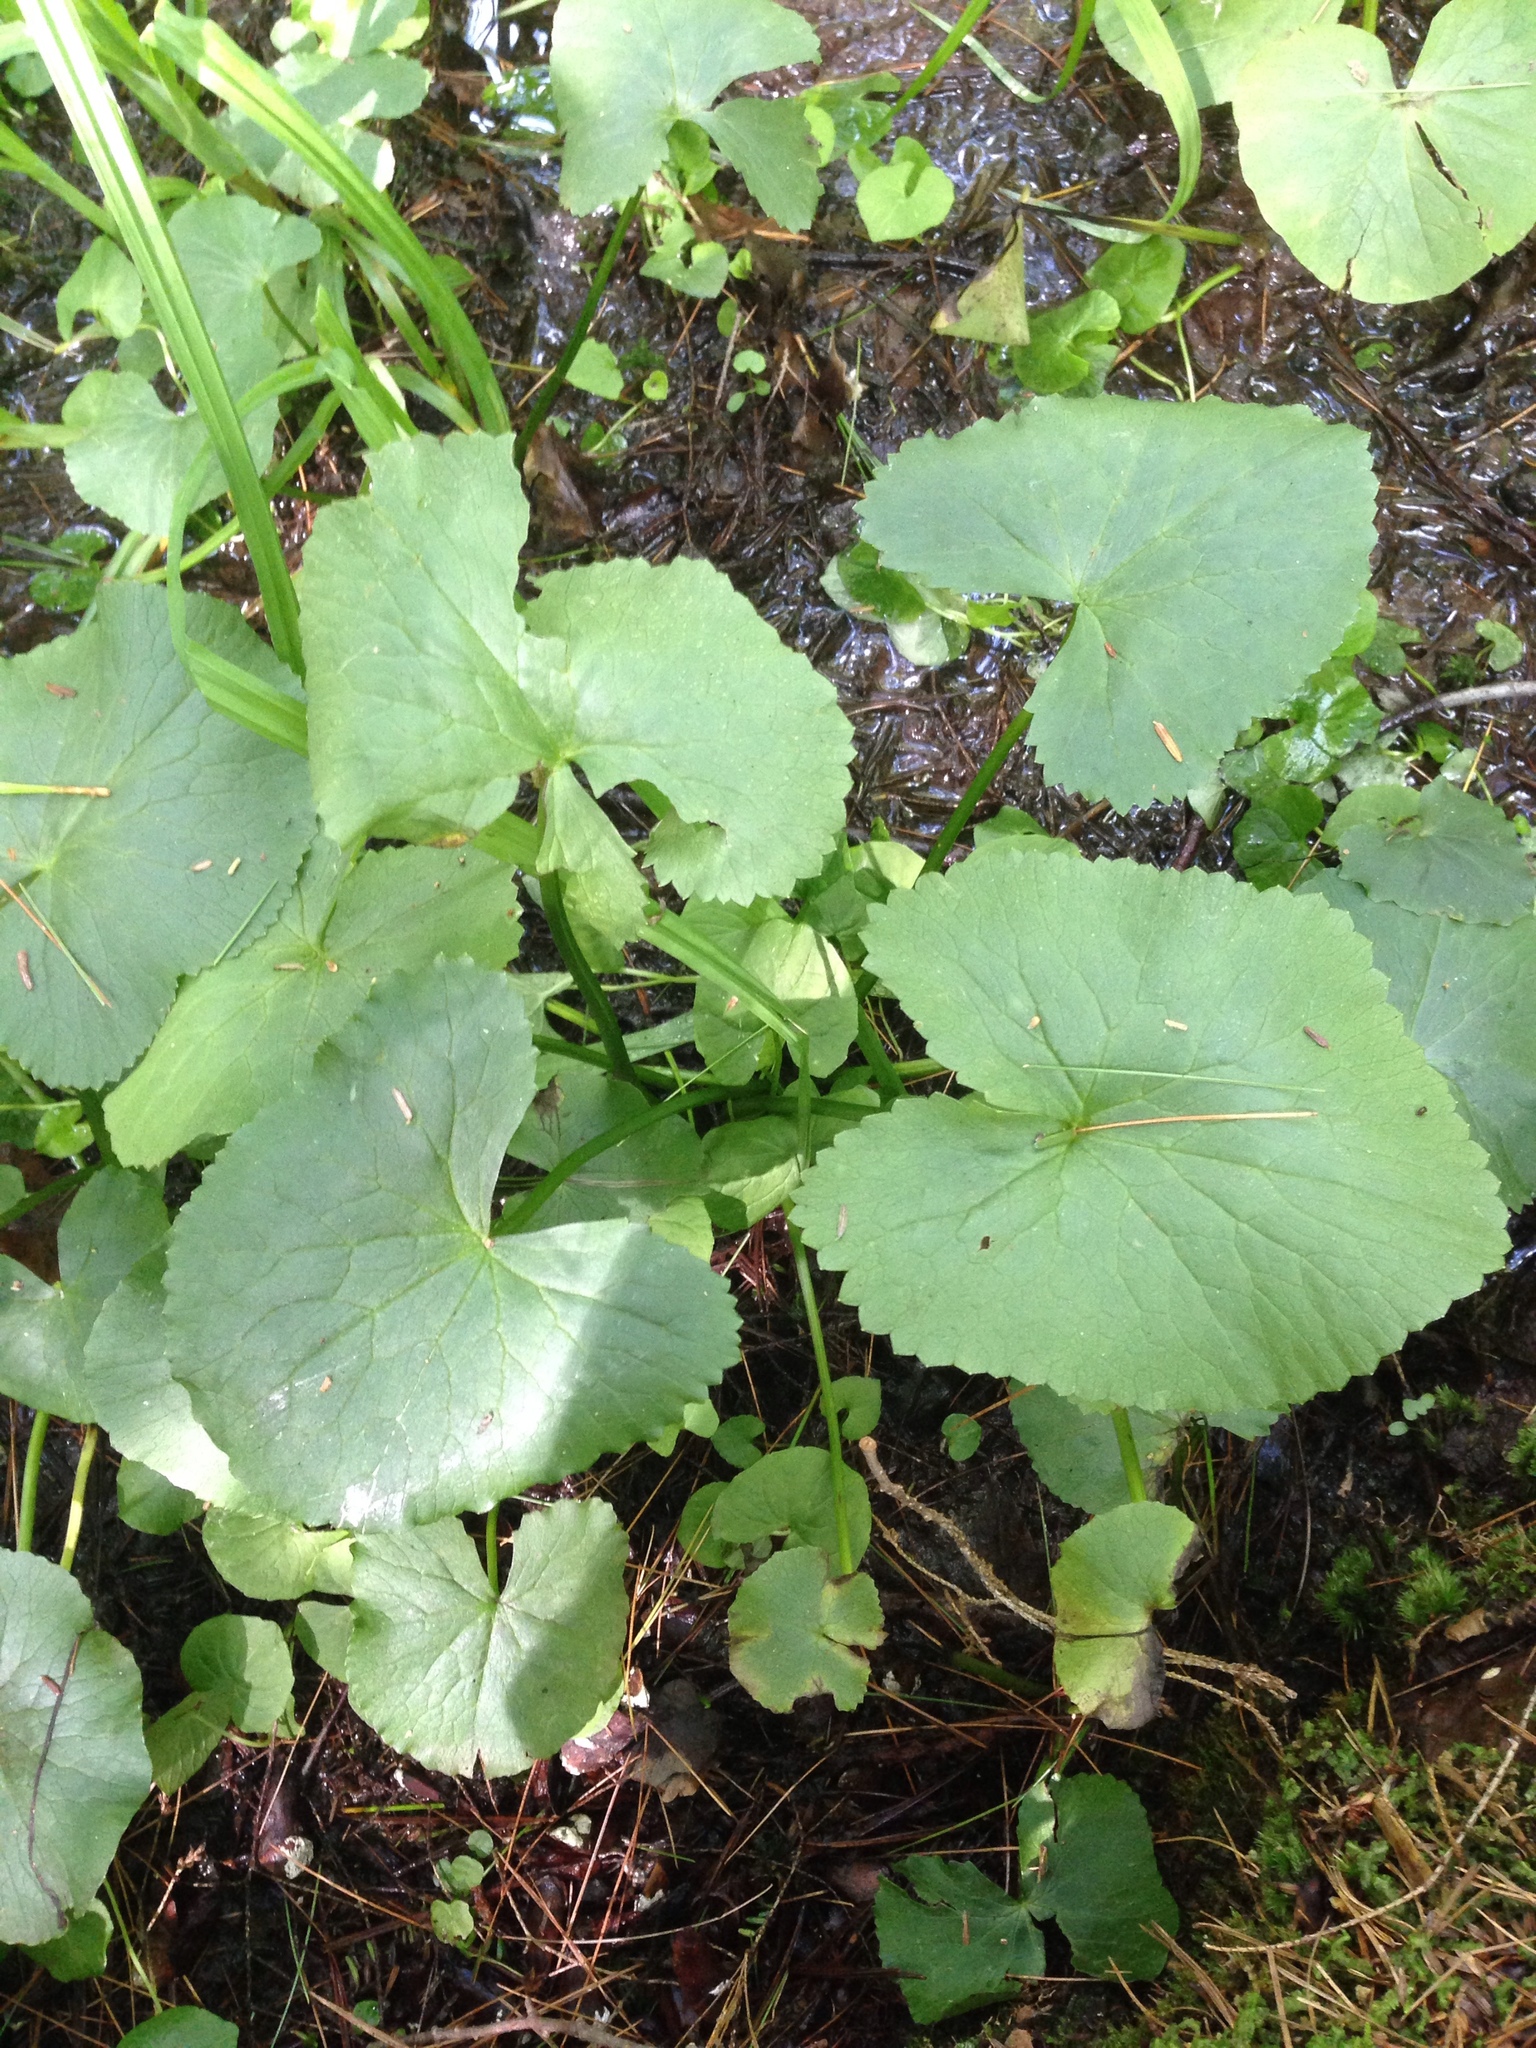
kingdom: Plantae
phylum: Tracheophyta
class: Magnoliopsida
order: Ranunculales
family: Ranunculaceae
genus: Caltha
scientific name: Caltha palustris
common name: Marsh marigold
